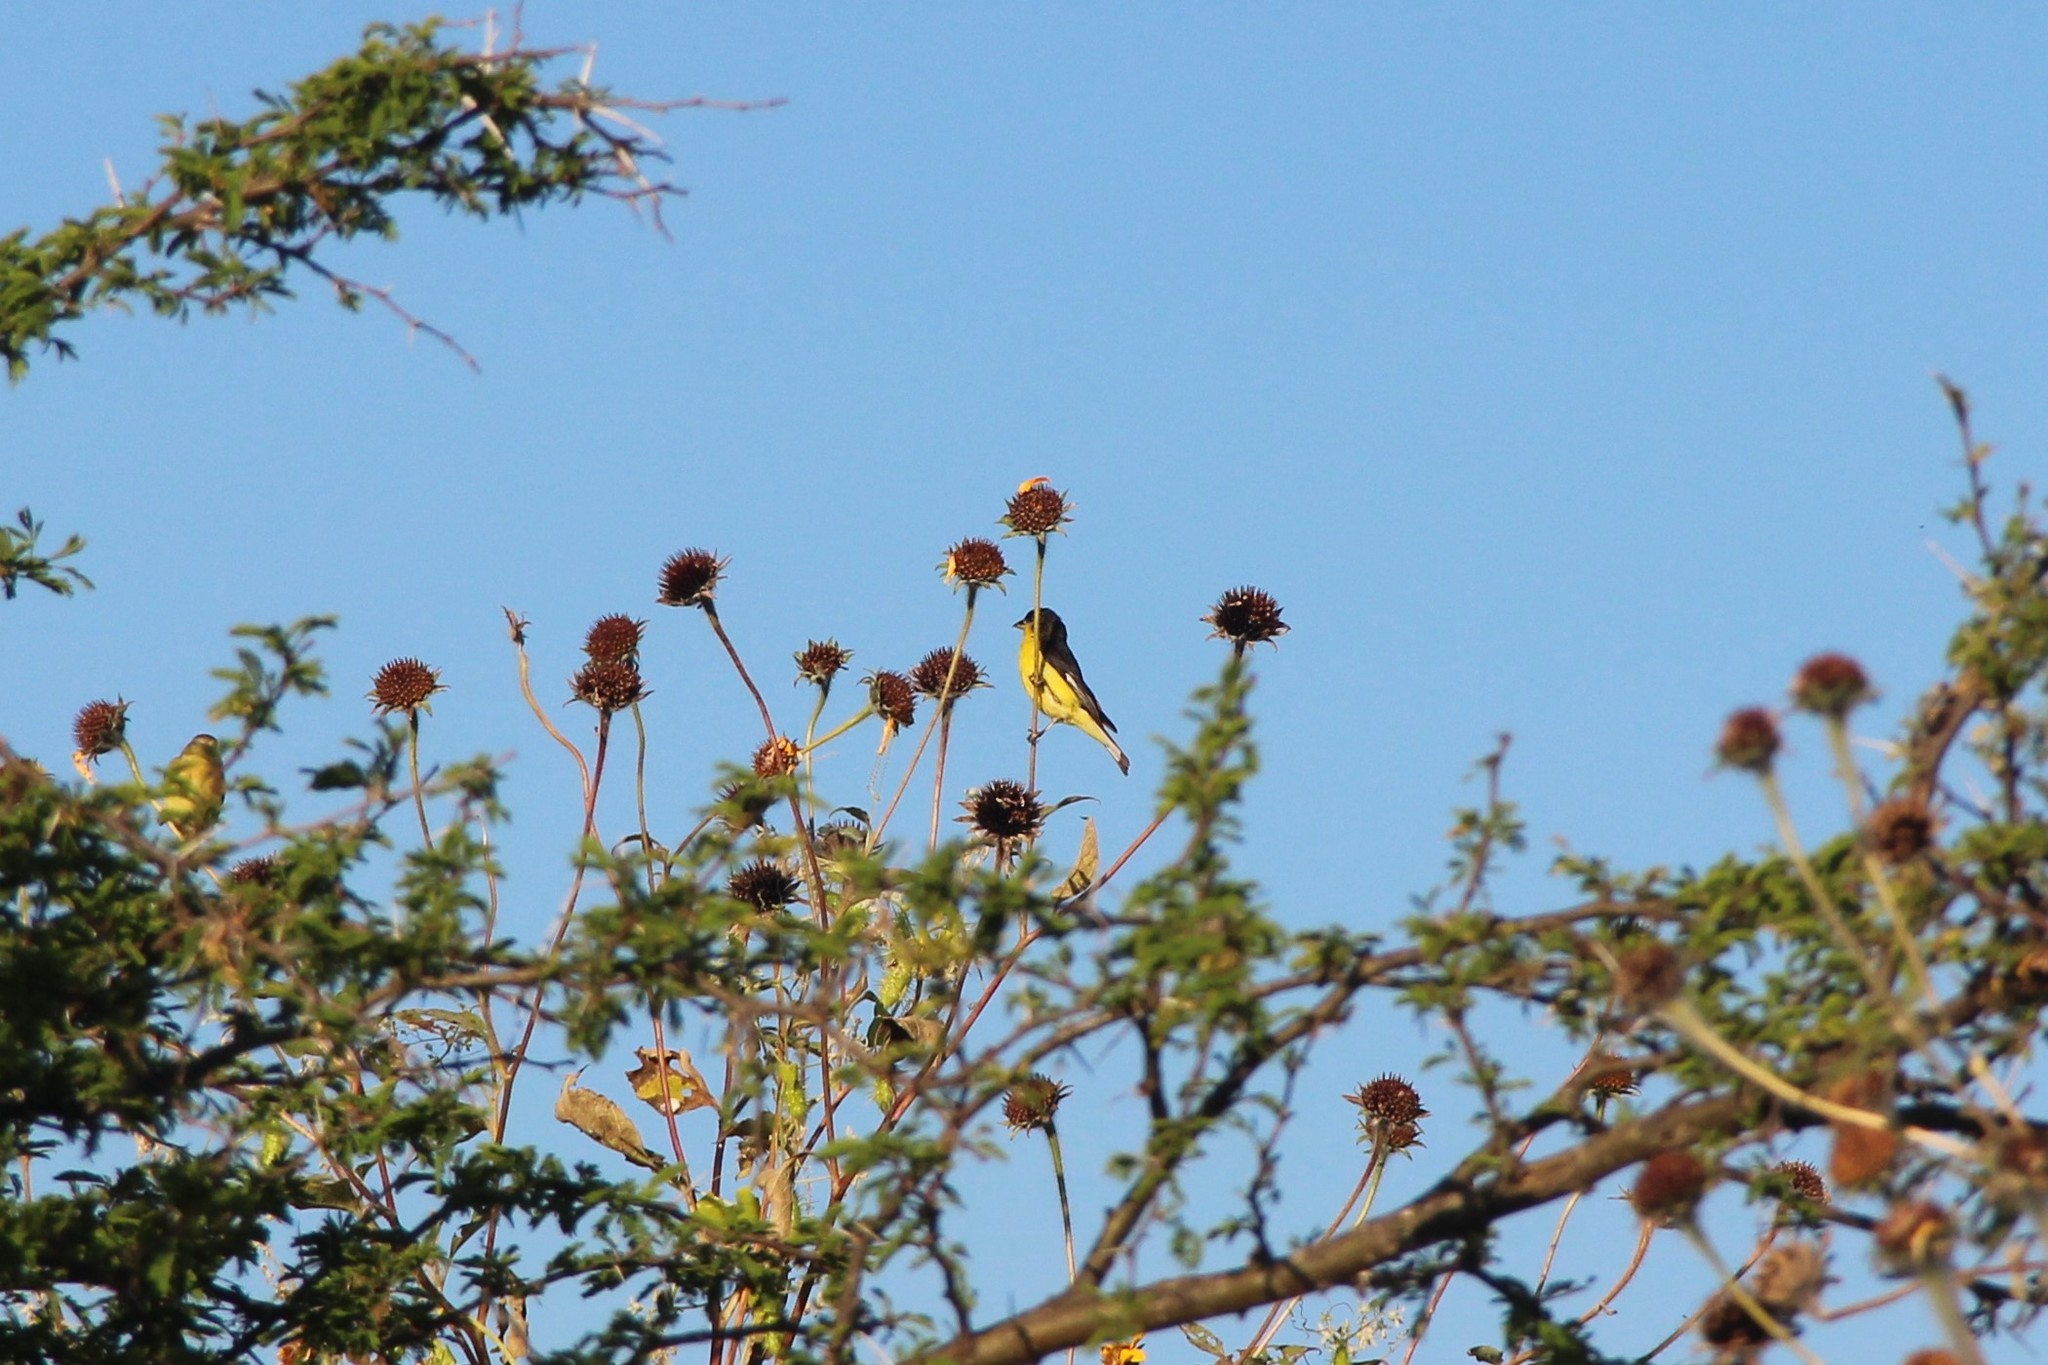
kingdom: Animalia
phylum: Chordata
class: Aves
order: Passeriformes
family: Fringillidae
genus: Spinus
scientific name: Spinus psaltria
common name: Lesser goldfinch
